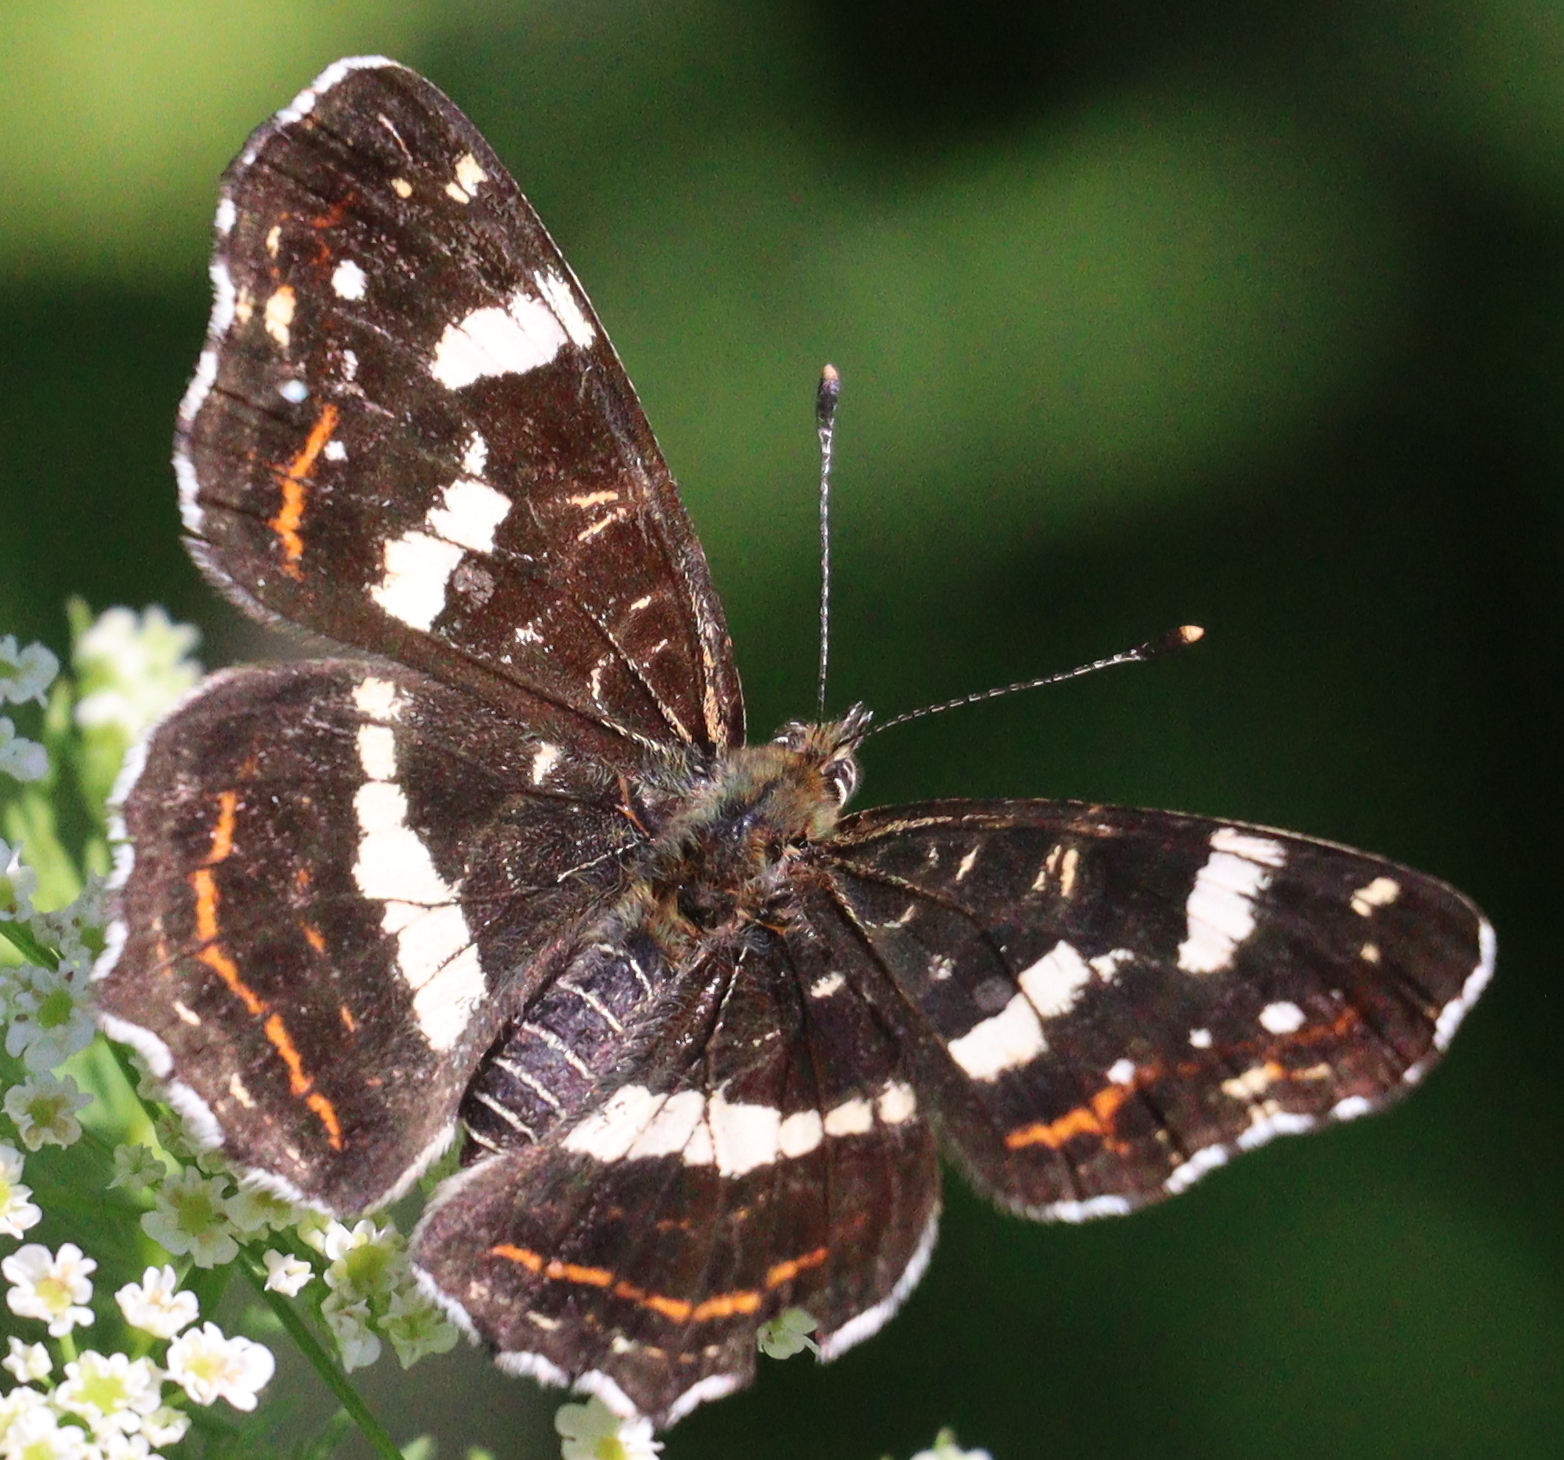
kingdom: Animalia
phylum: Arthropoda
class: Insecta
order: Lepidoptera
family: Nymphalidae
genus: Araschnia
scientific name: Araschnia levana
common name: Map butterfly
